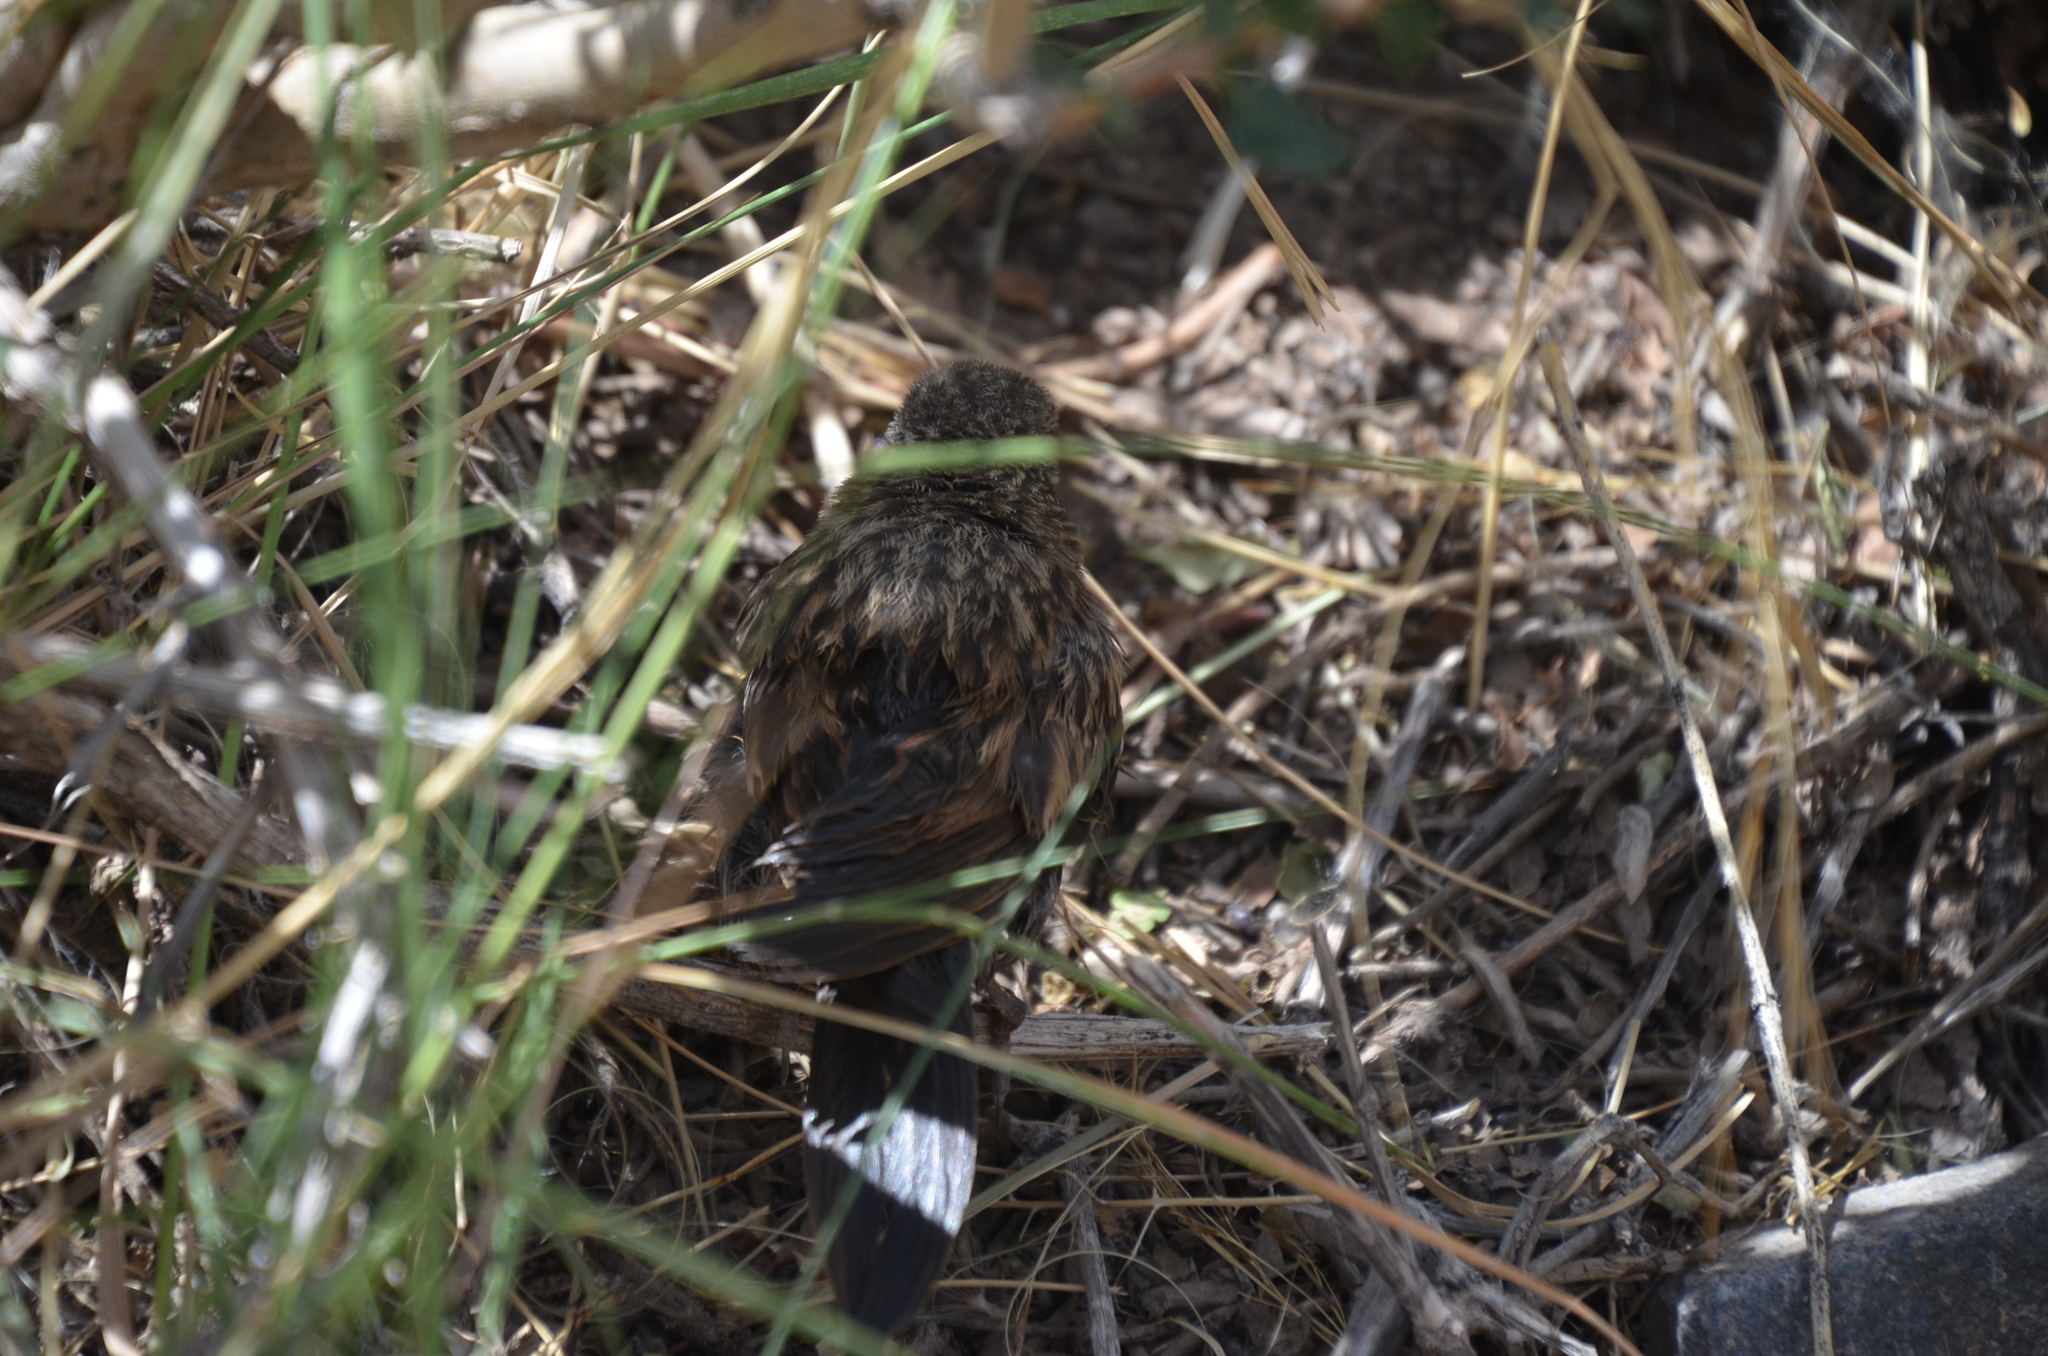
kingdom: Animalia
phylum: Chordata
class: Aves
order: Passeriformes
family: Passerellidae
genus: Zonotrichia
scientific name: Zonotrichia capensis
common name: Rufous-collared sparrow
